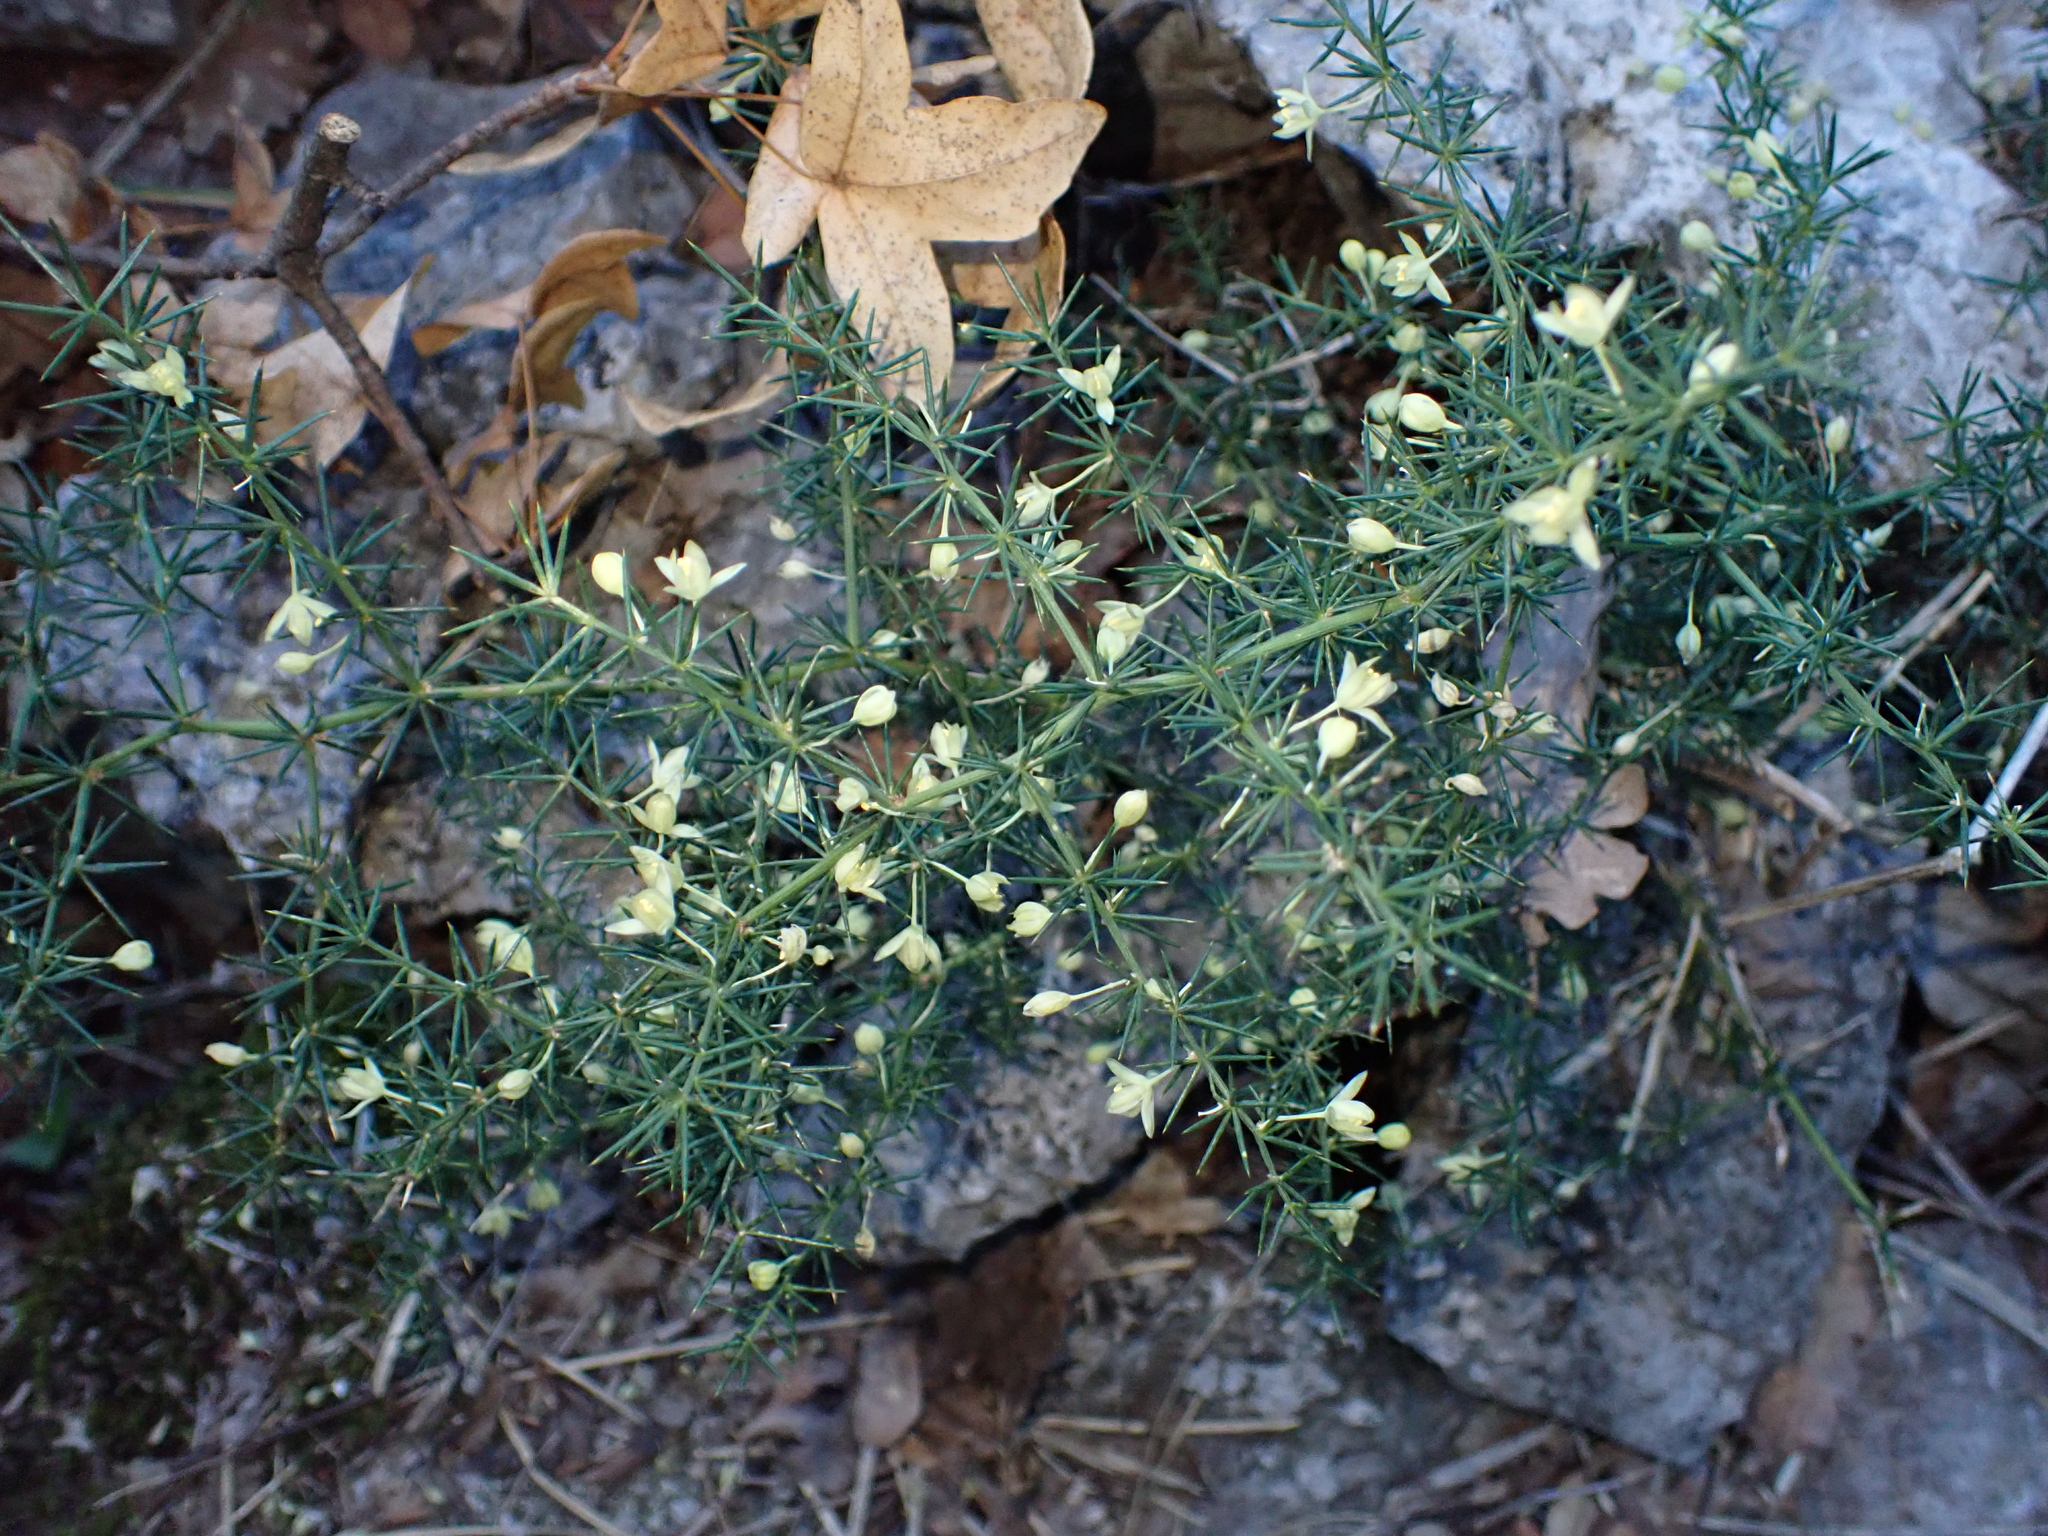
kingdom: Plantae
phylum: Tracheophyta
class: Liliopsida
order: Asparagales
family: Asparagaceae
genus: Asparagus
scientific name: Asparagus acutifolius
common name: Wild asparagus
